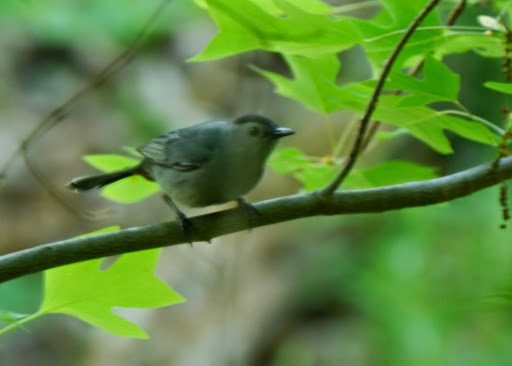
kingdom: Animalia
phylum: Chordata
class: Aves
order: Passeriformes
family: Mimidae
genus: Dumetella
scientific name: Dumetella carolinensis
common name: Gray catbird
